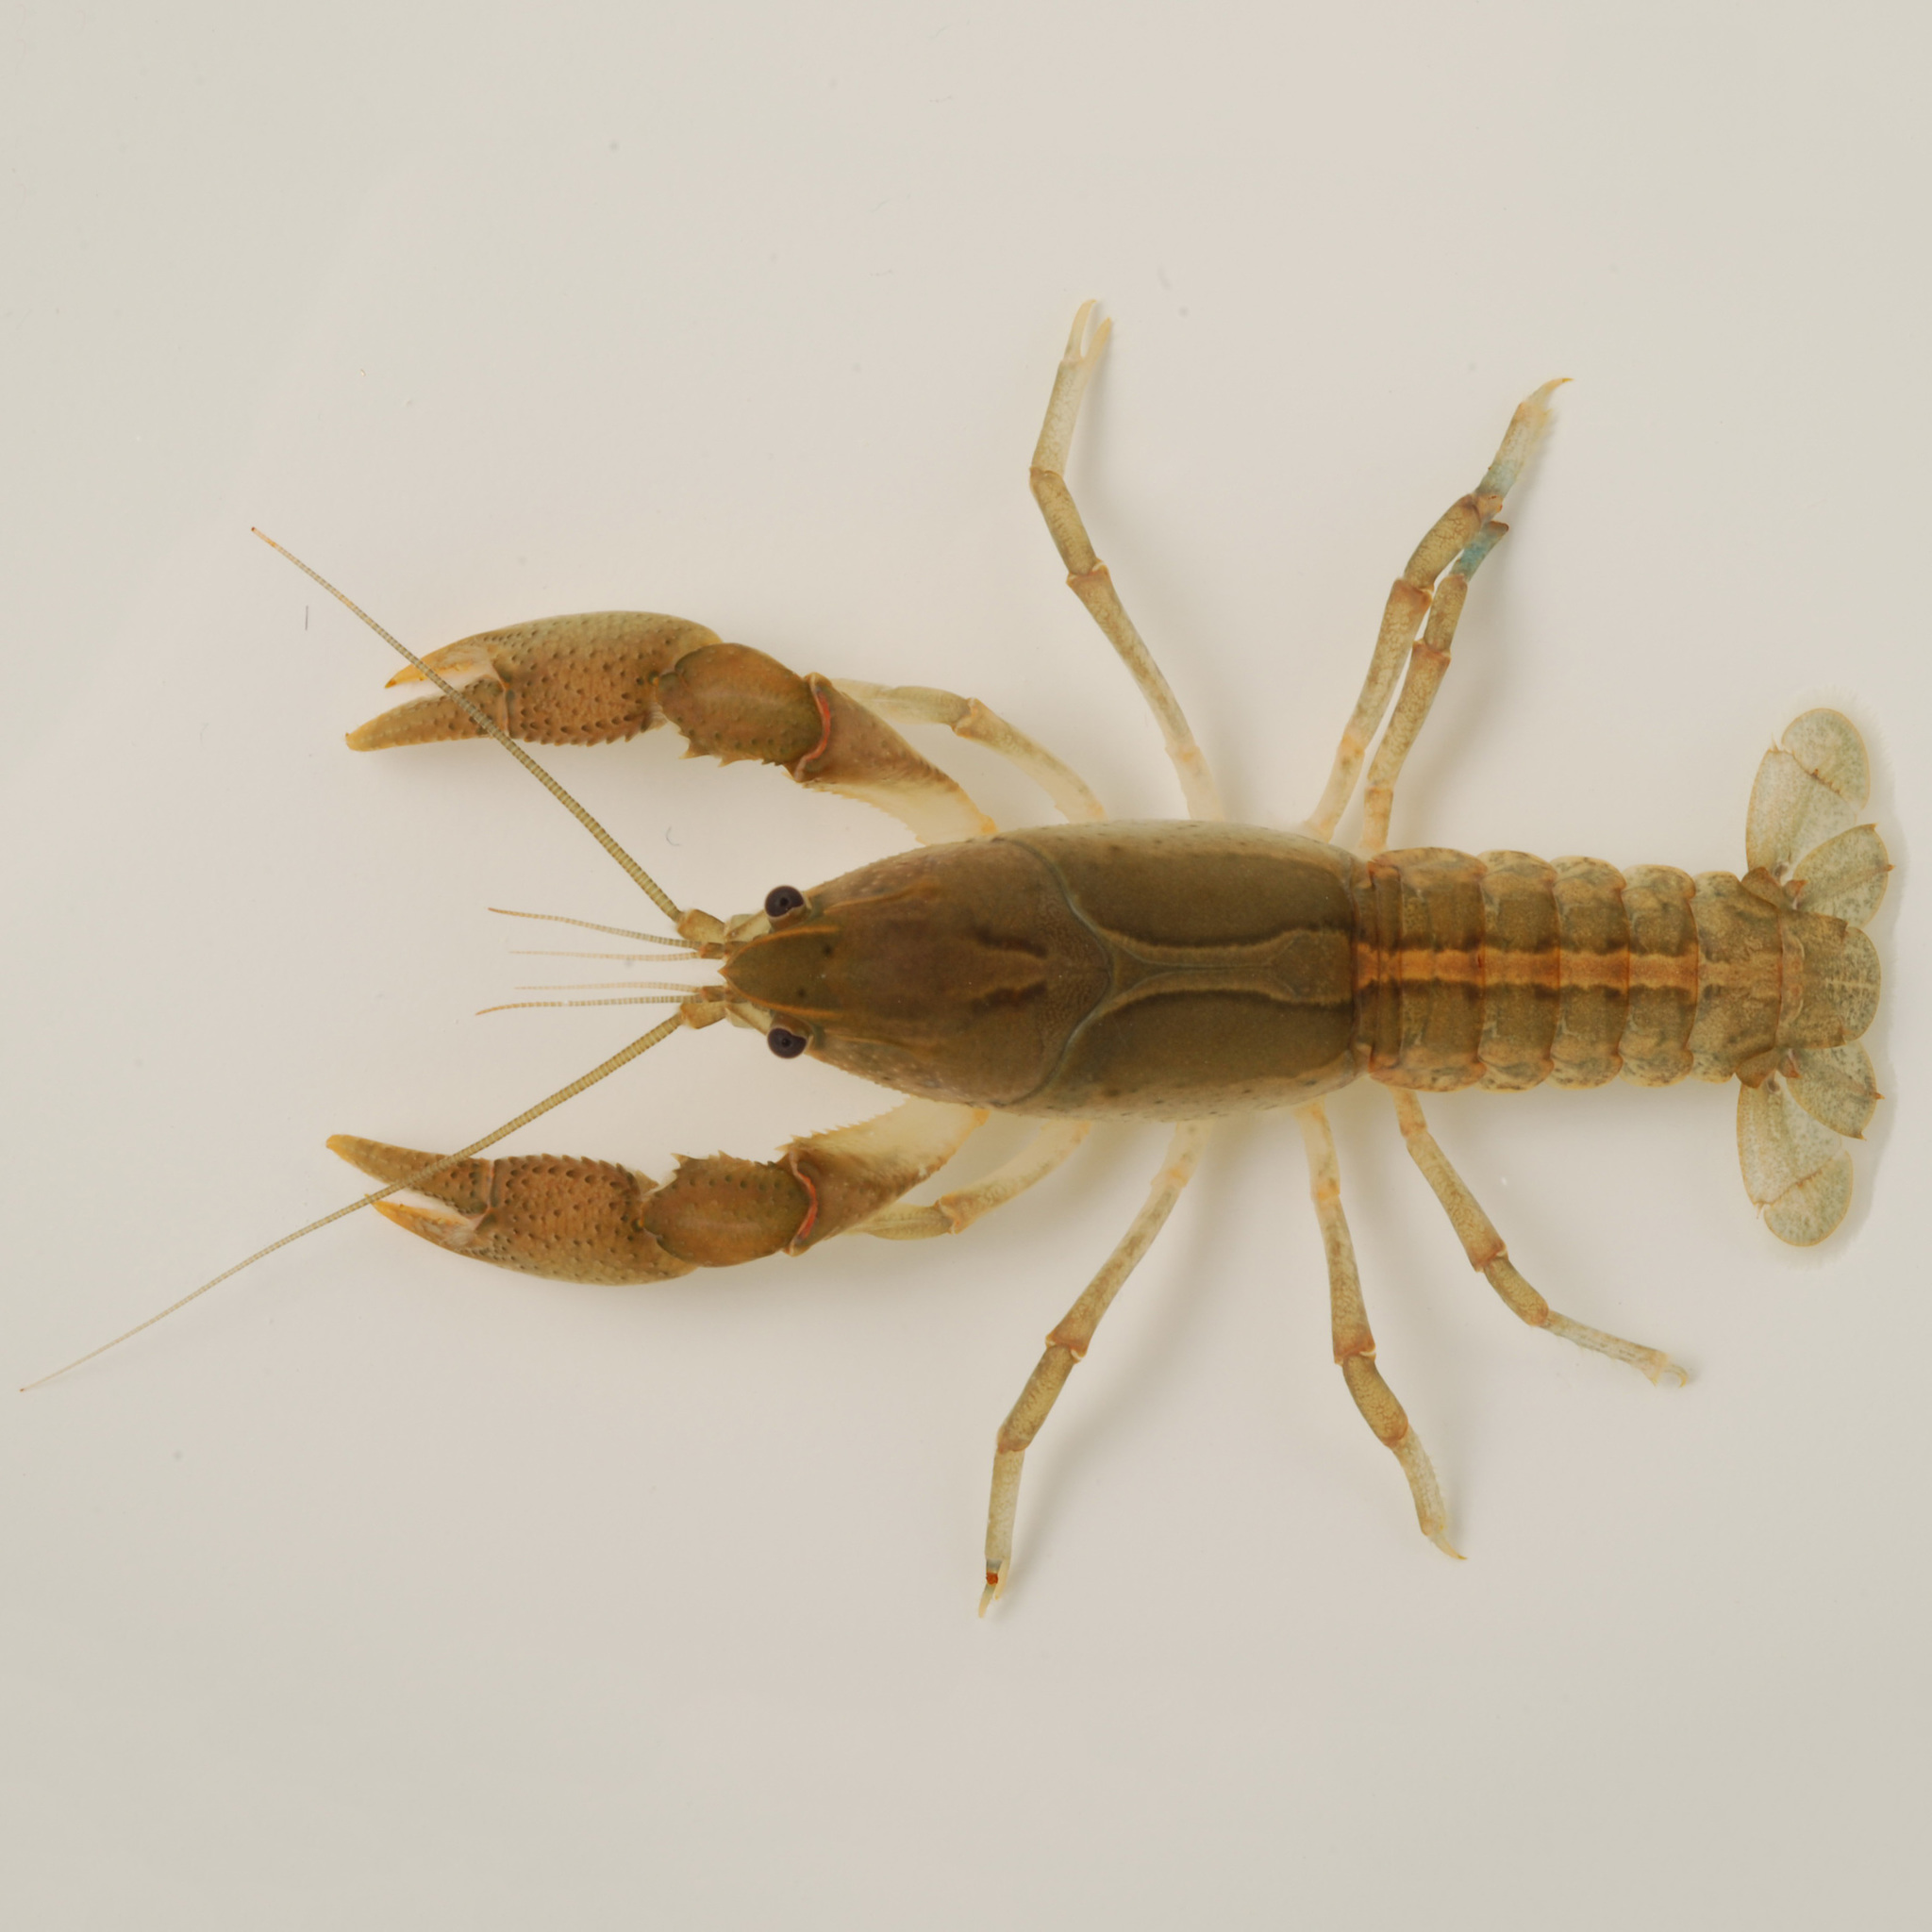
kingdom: Animalia
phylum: Arthropoda
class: Malacostraca
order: Decapoda
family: Cambaridae
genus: Fallicambarus
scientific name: Fallicambarus macneesei
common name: Old prairie digger
